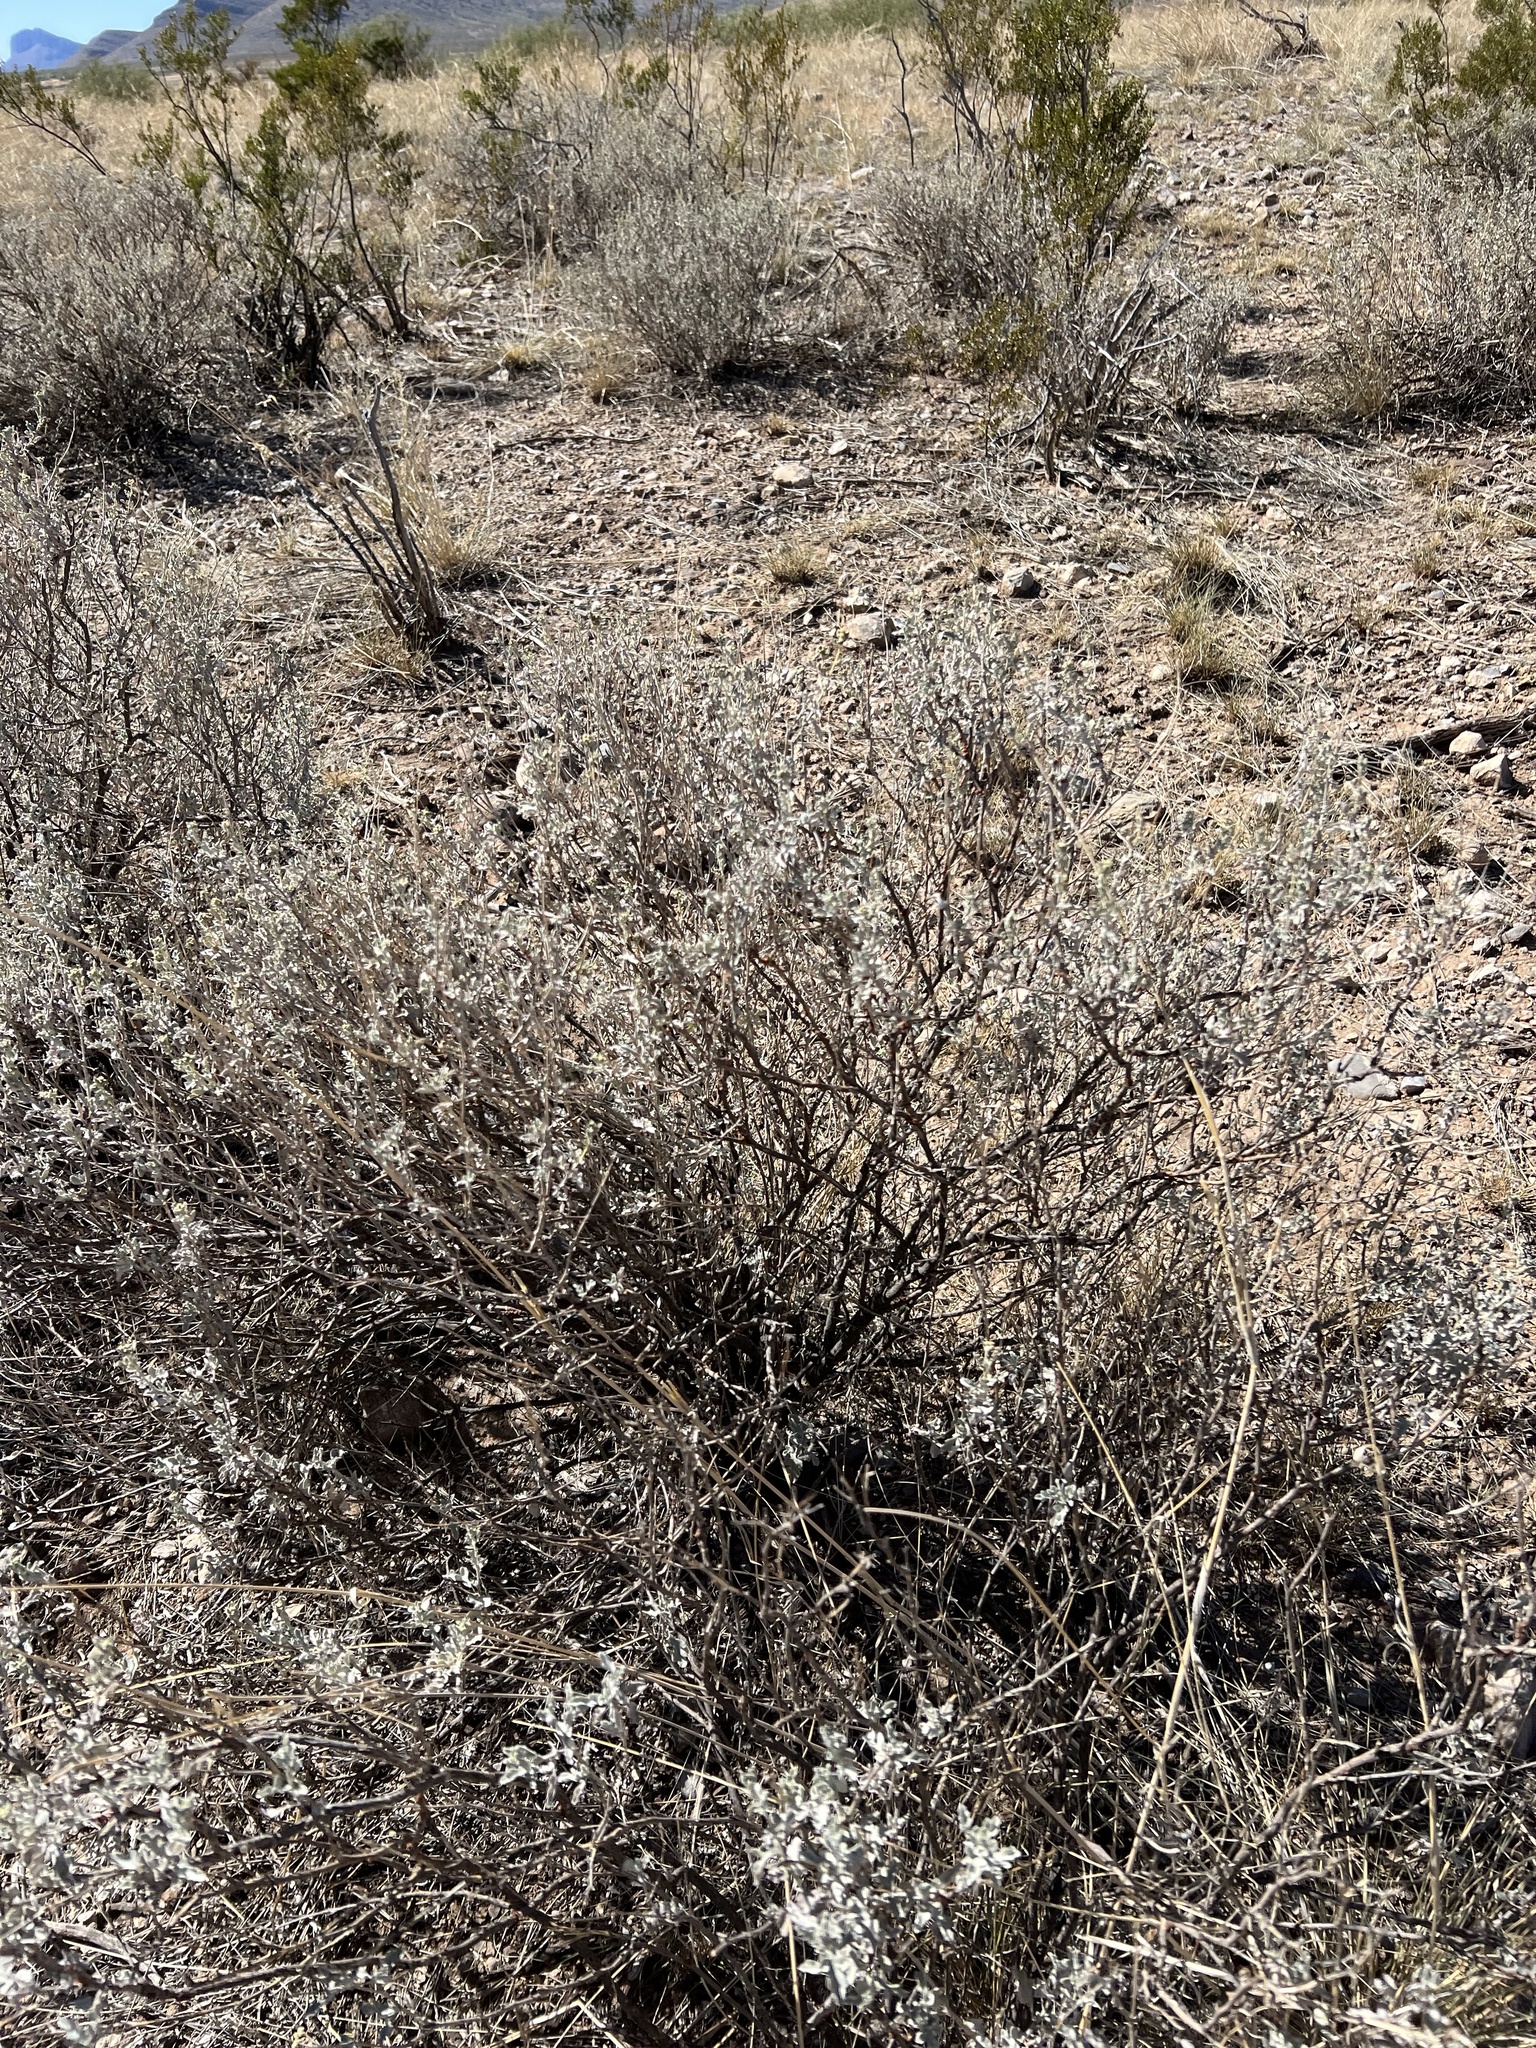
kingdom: Plantae
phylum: Tracheophyta
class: Magnoliopsida
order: Asterales
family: Asteraceae
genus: Parthenium
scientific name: Parthenium incanum
